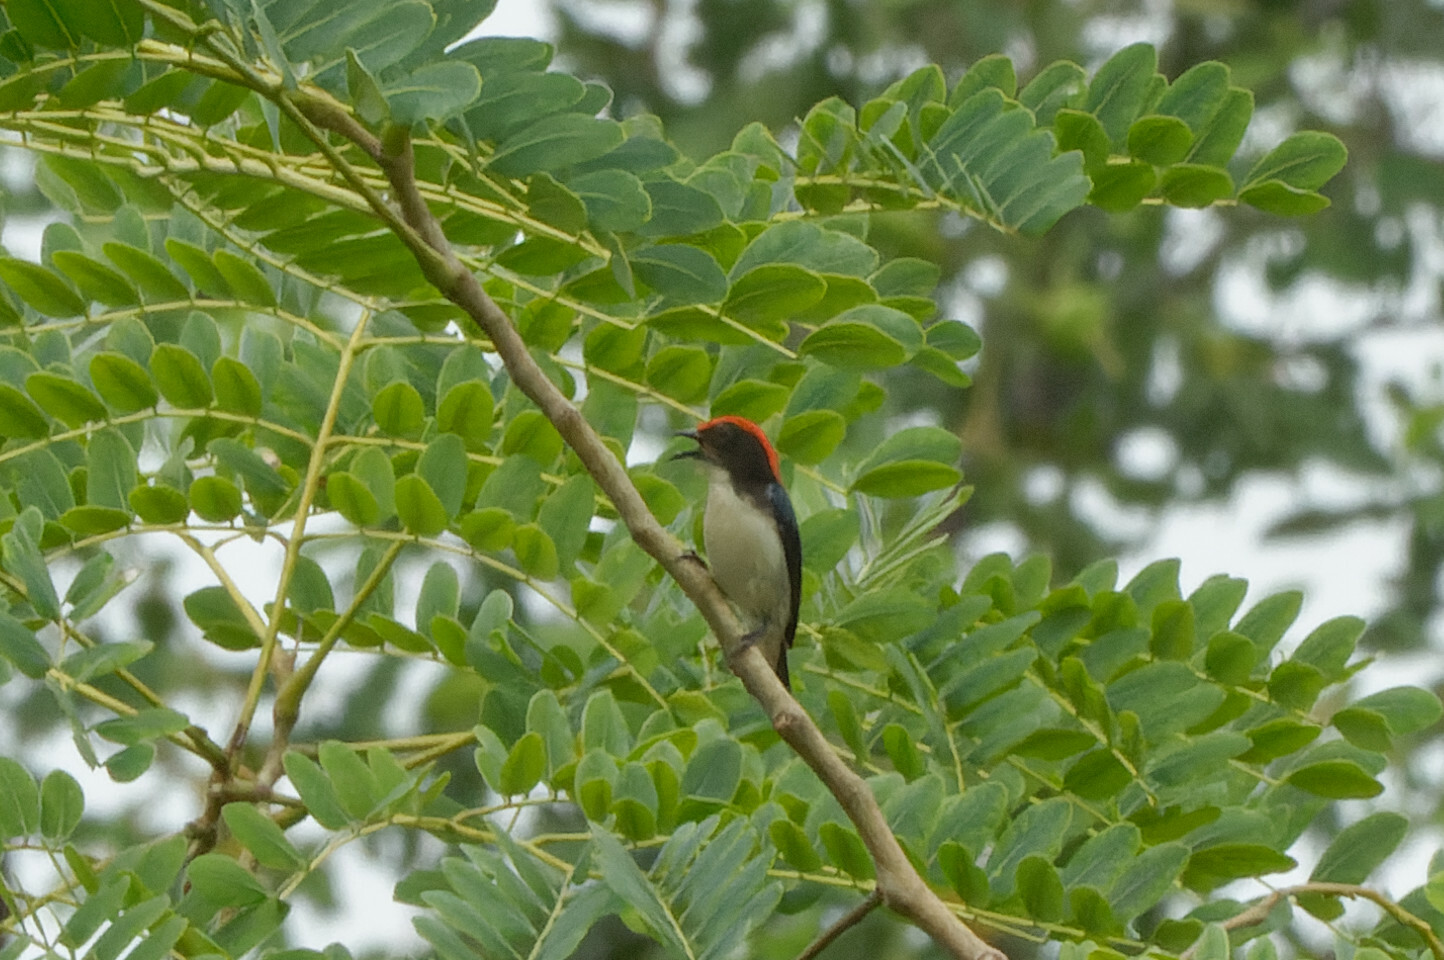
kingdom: Animalia
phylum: Chordata
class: Aves
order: Passeriformes
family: Dicaeidae
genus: Dicaeum
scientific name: Dicaeum cruentatum
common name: Scarlet-backed flowerpecker
